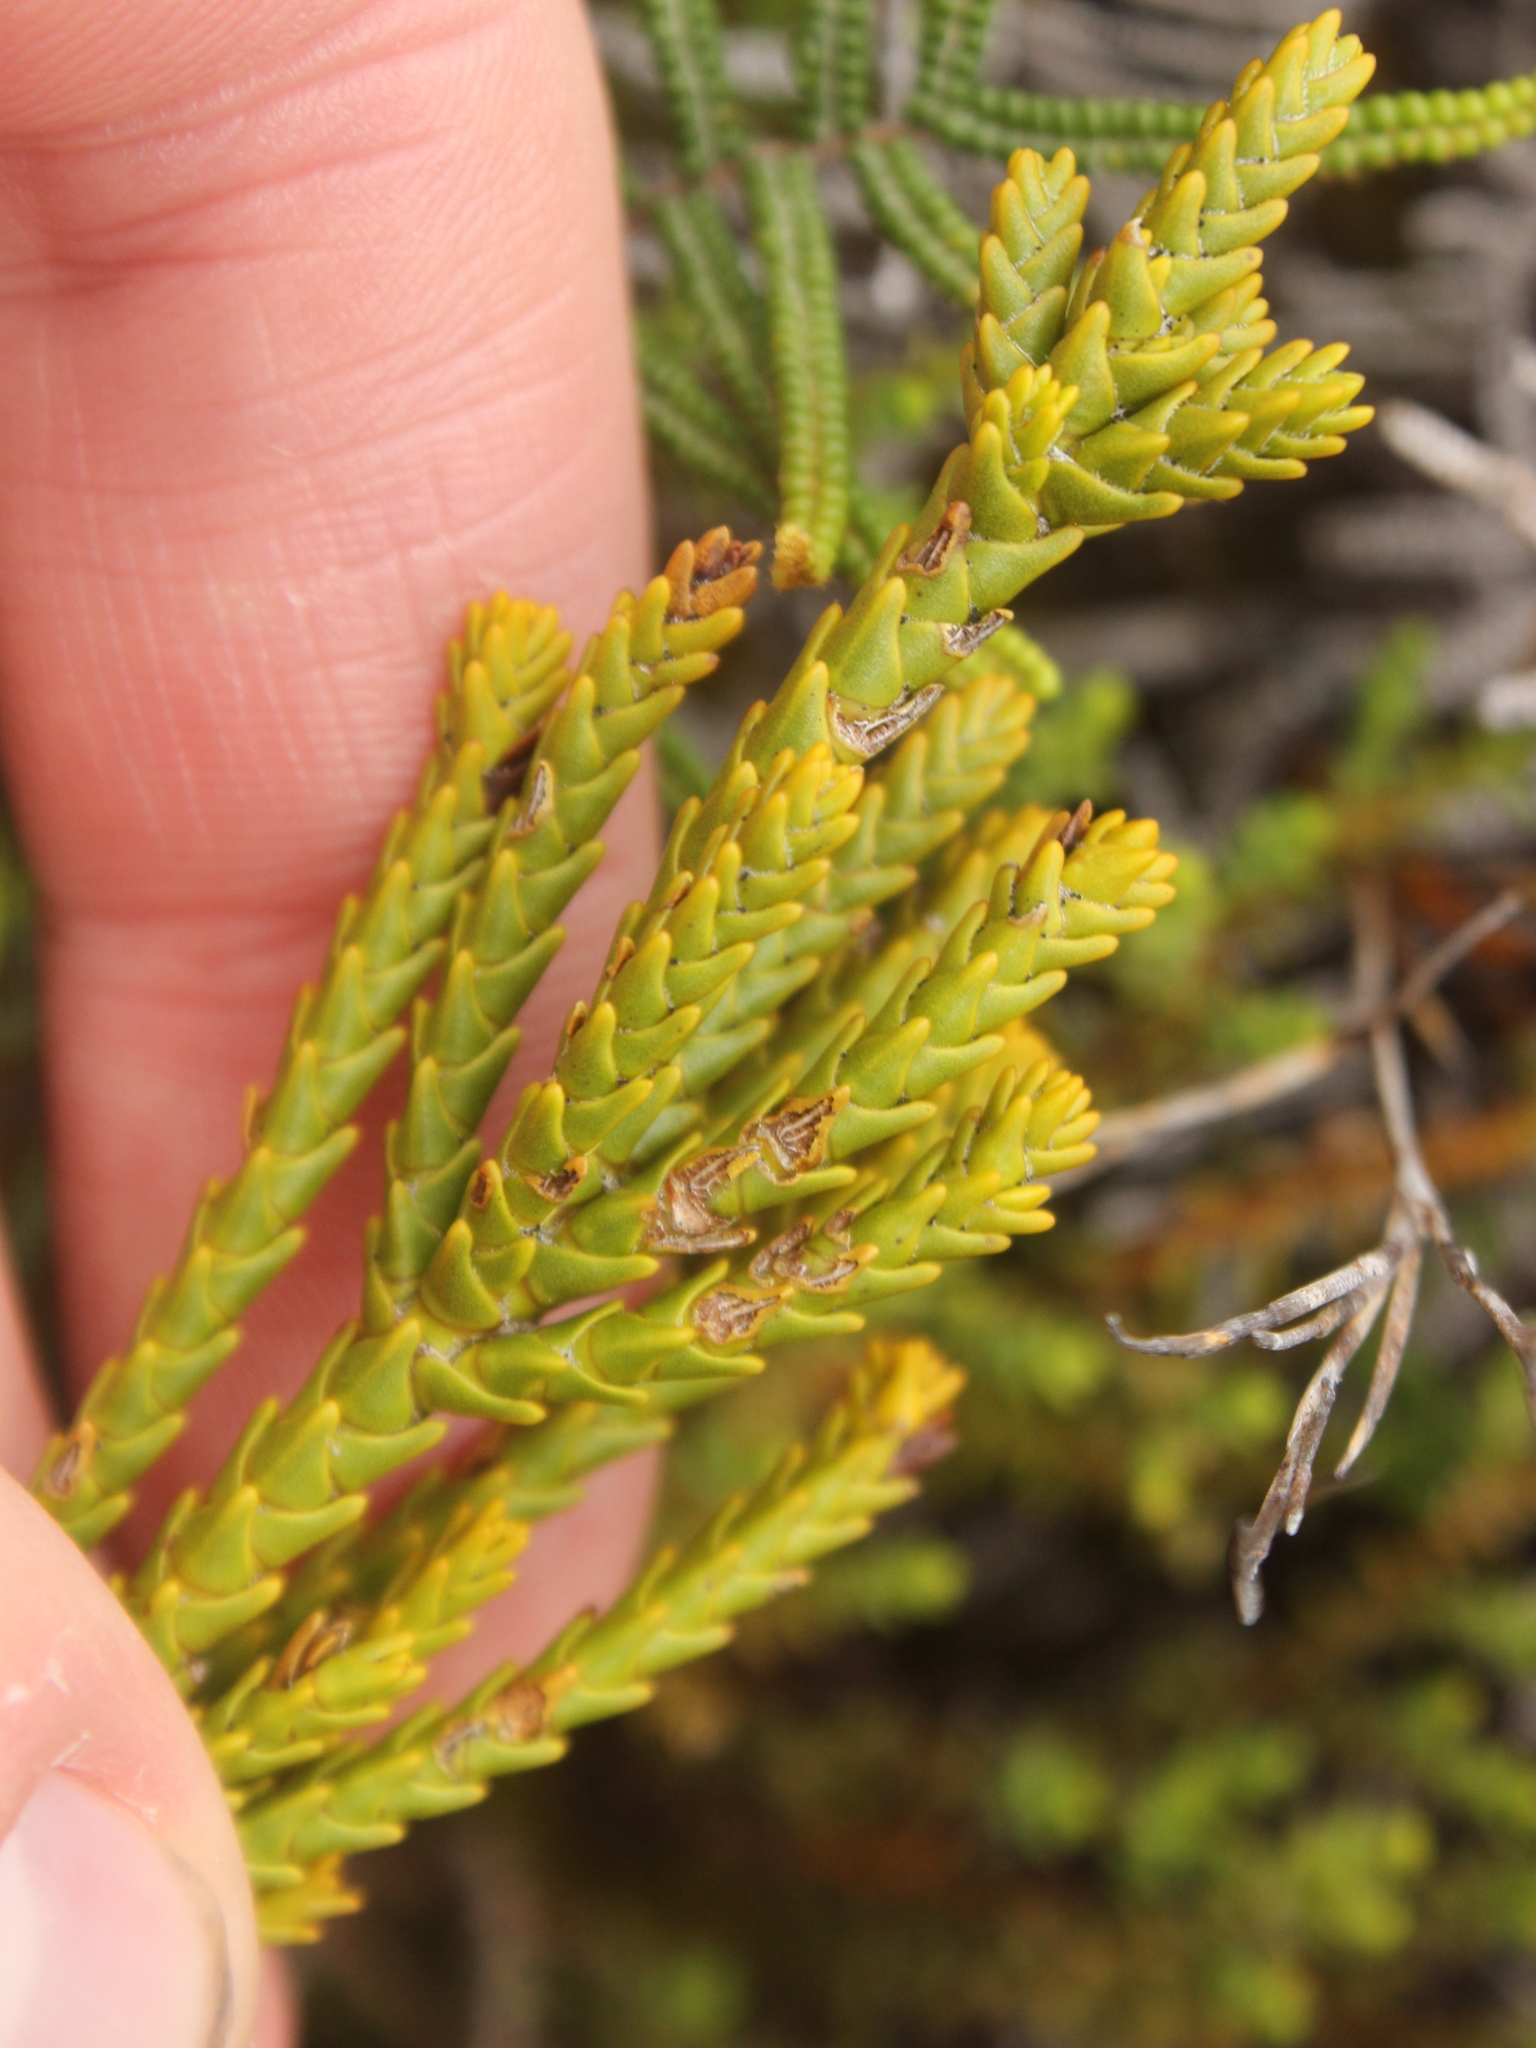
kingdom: Plantae
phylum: Tracheophyta
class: Magnoliopsida
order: Lamiales
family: Plantaginaceae
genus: Veronica
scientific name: Veronica tetragona
